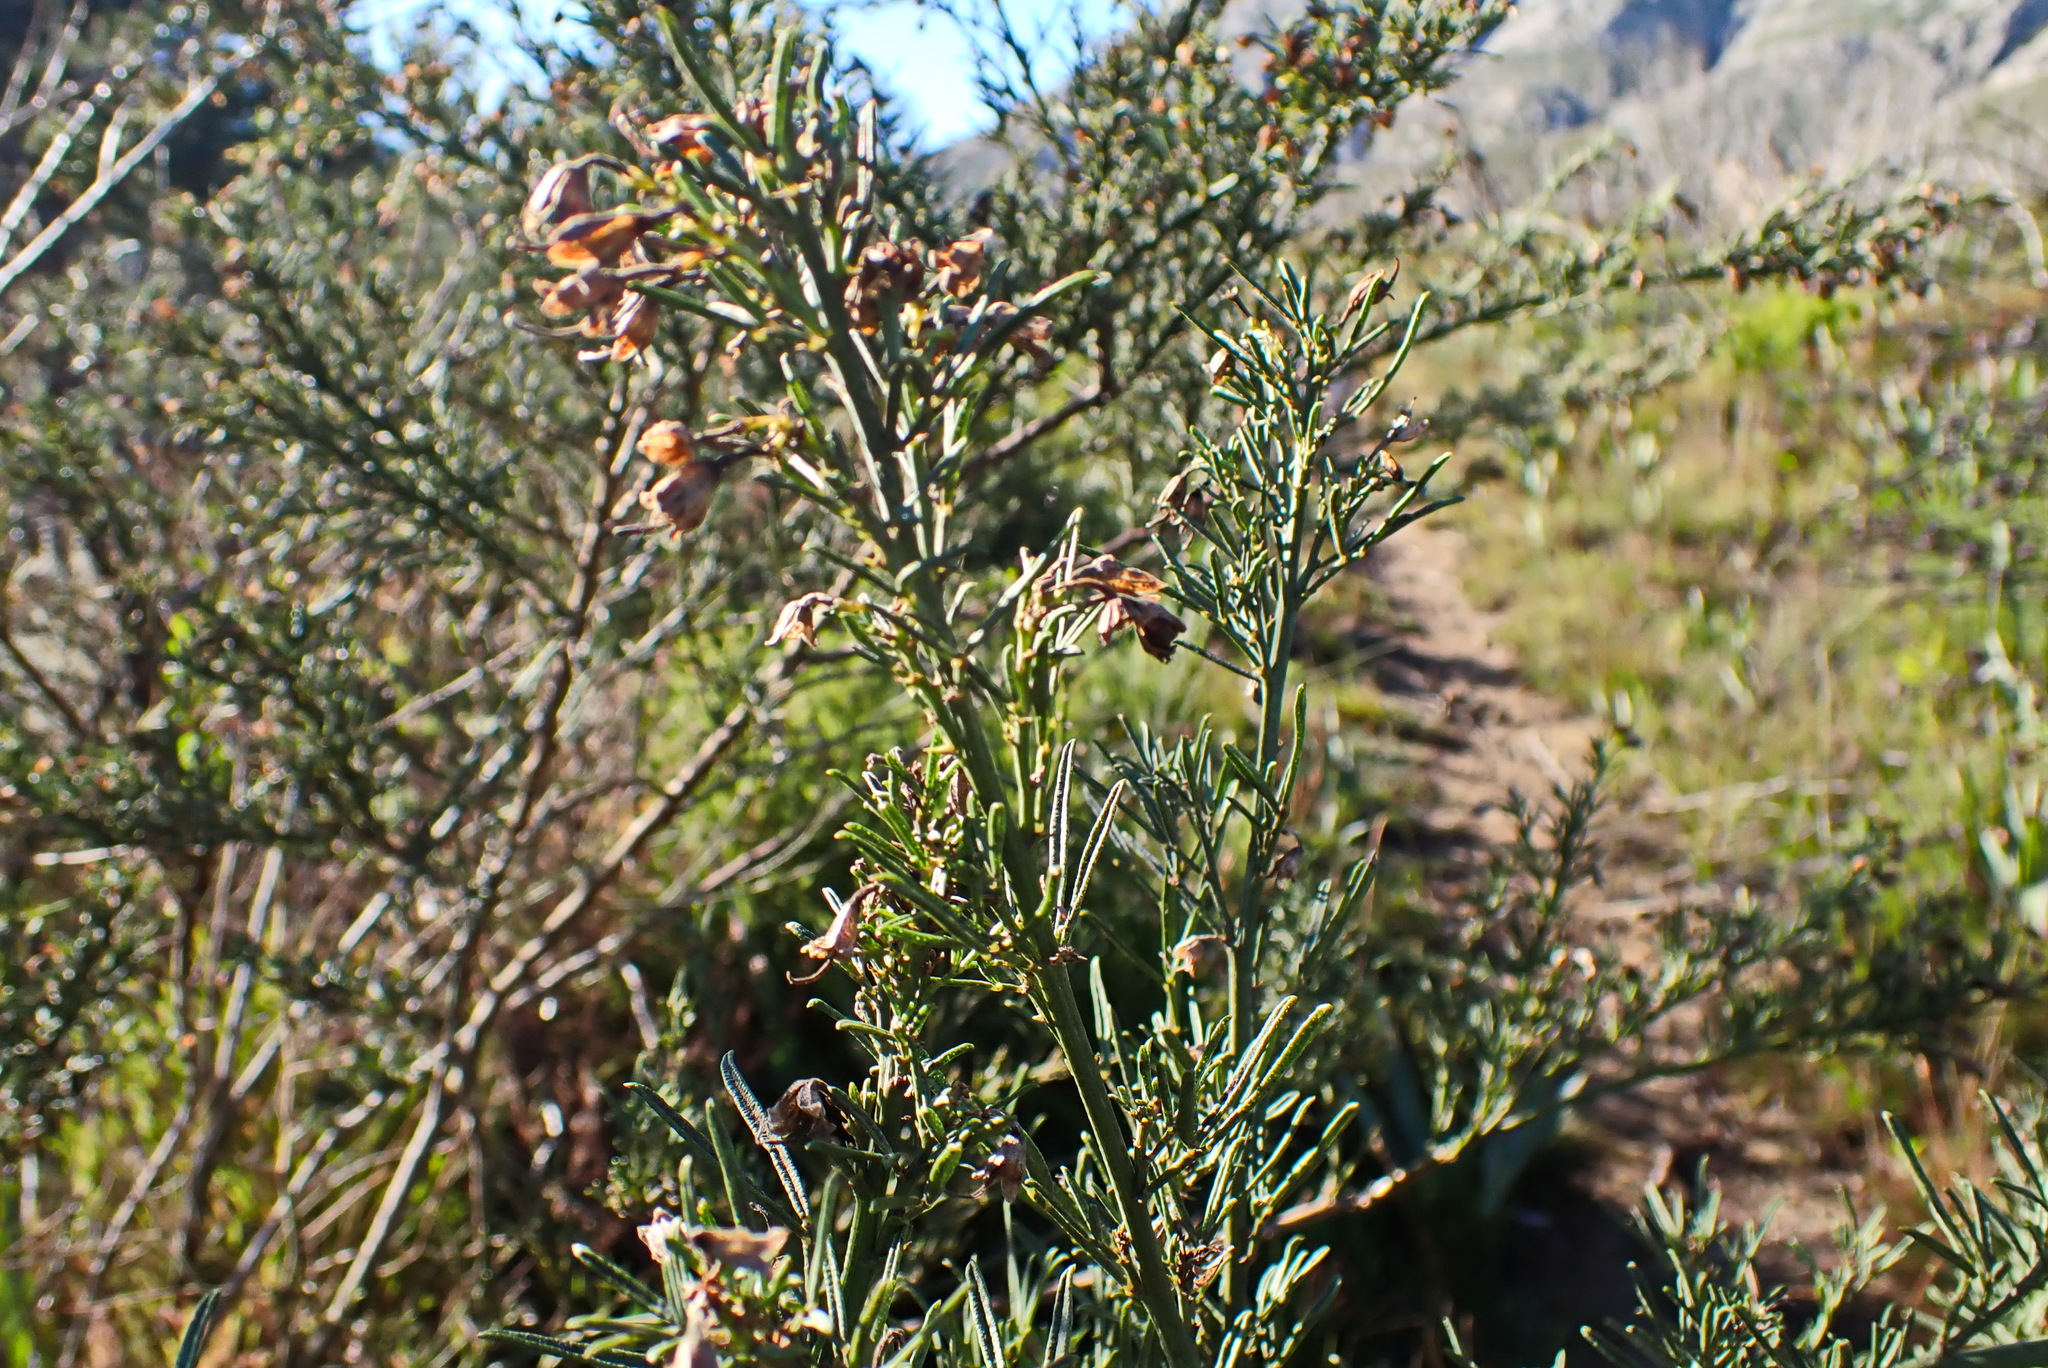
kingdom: Plantae
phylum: Tracheophyta
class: Magnoliopsida
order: Fabales
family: Fabaceae
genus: Psoralea
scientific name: Psoralea axillaris
